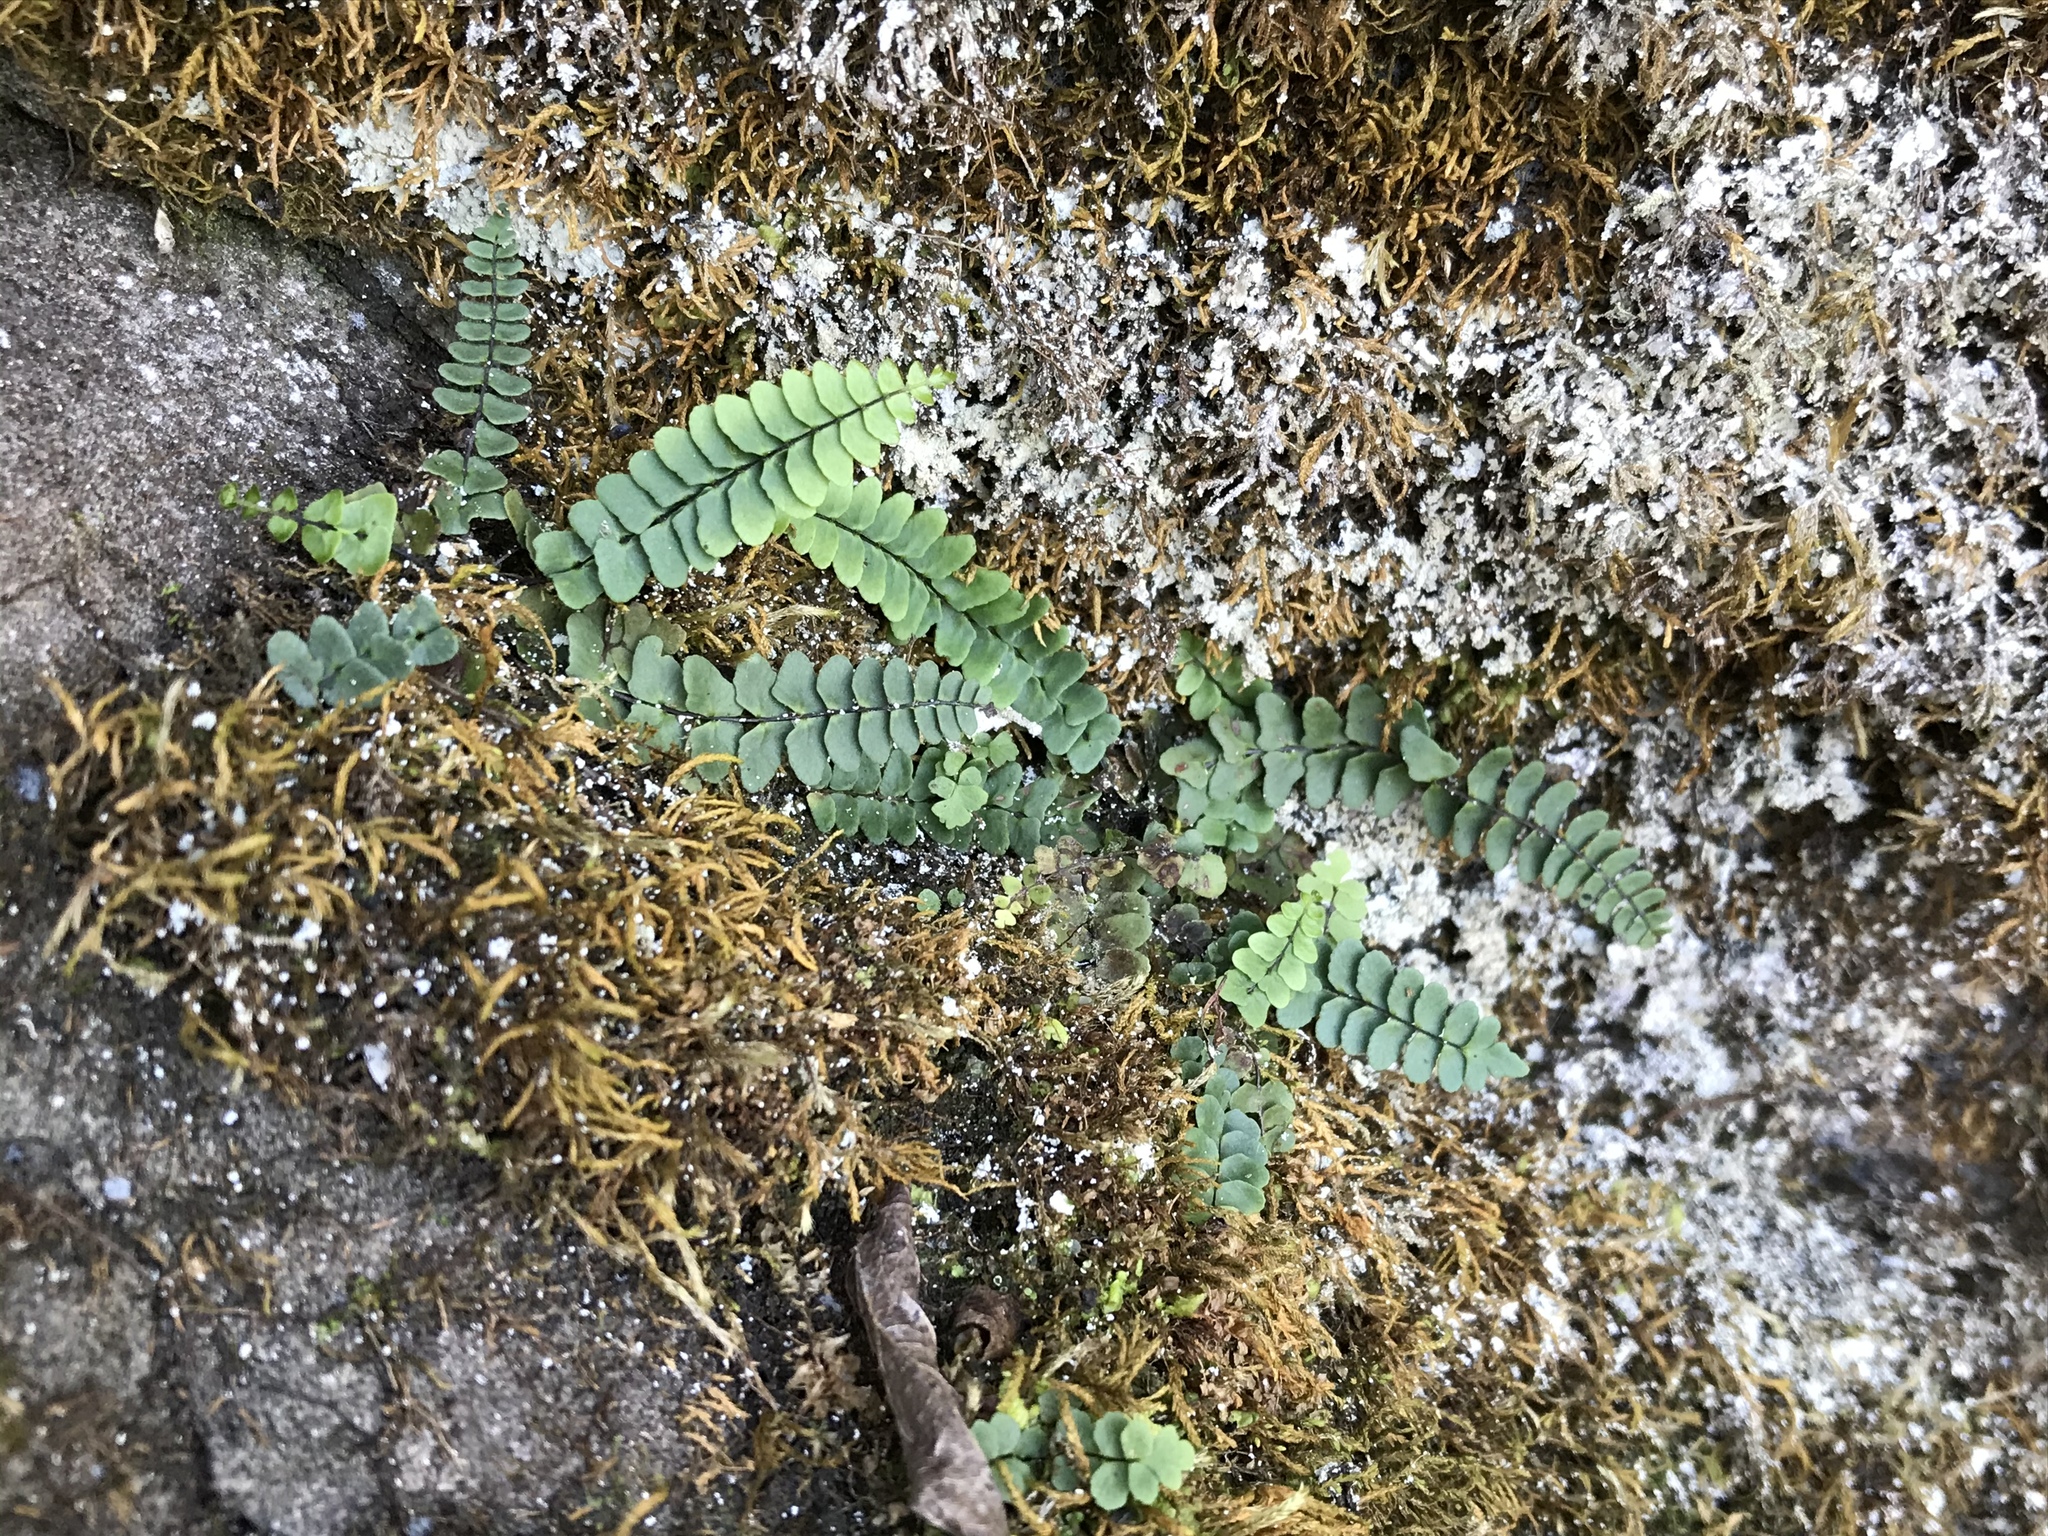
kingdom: Plantae
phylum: Tracheophyta
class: Polypodiopsida
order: Polypodiales
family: Aspleniaceae
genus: Asplenium
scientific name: Asplenium resiliens
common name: Blackstem spleenwort
